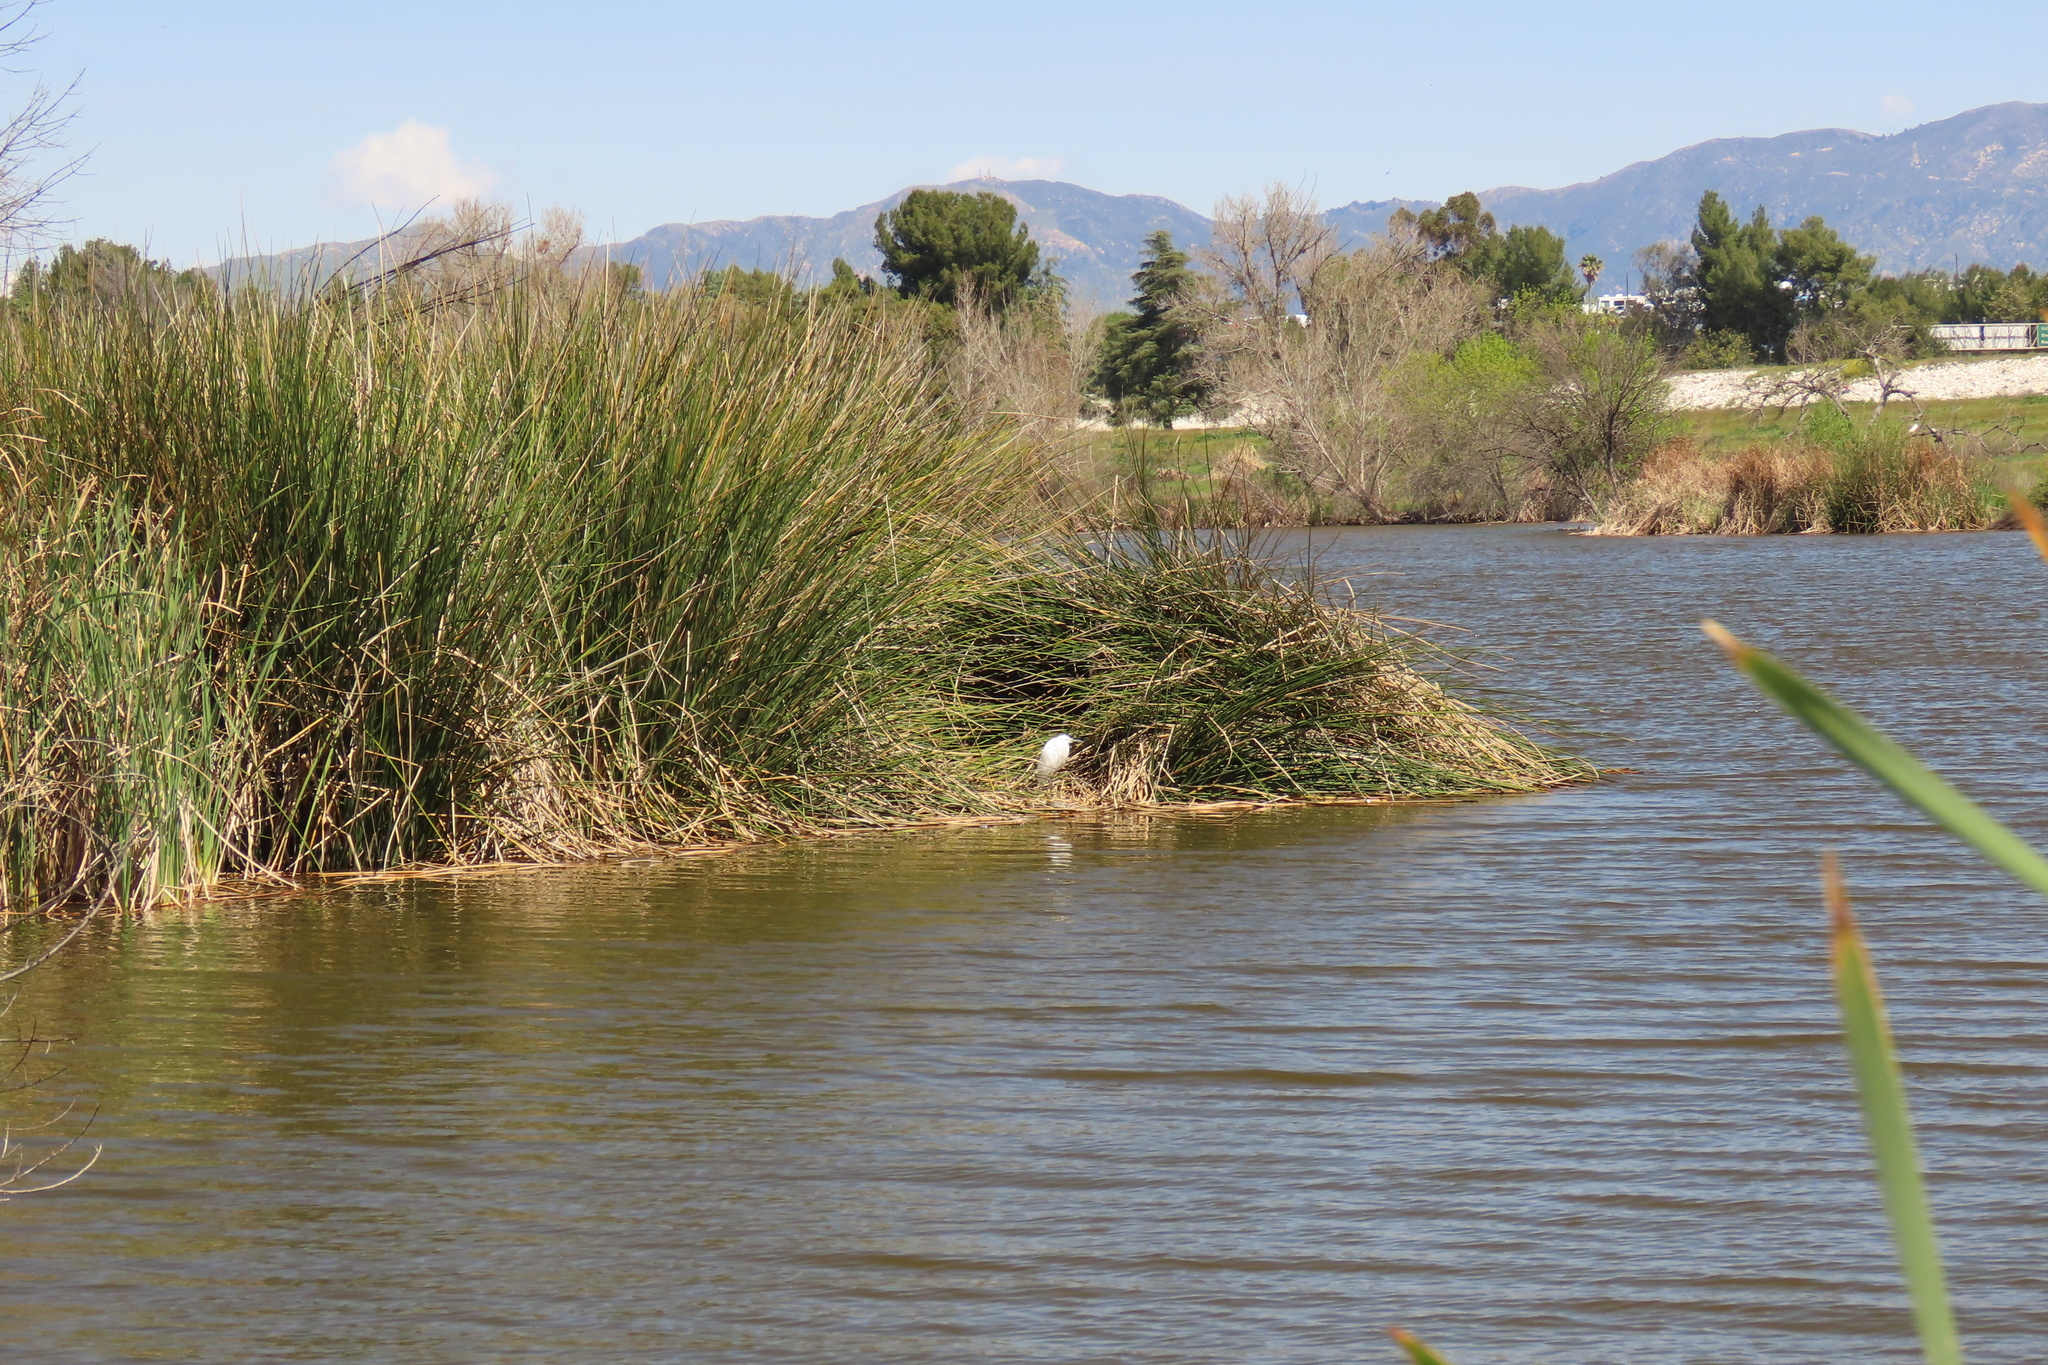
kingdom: Animalia
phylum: Chordata
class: Aves
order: Pelecaniformes
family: Ardeidae
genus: Egretta
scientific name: Egretta thula
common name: Snowy egret
